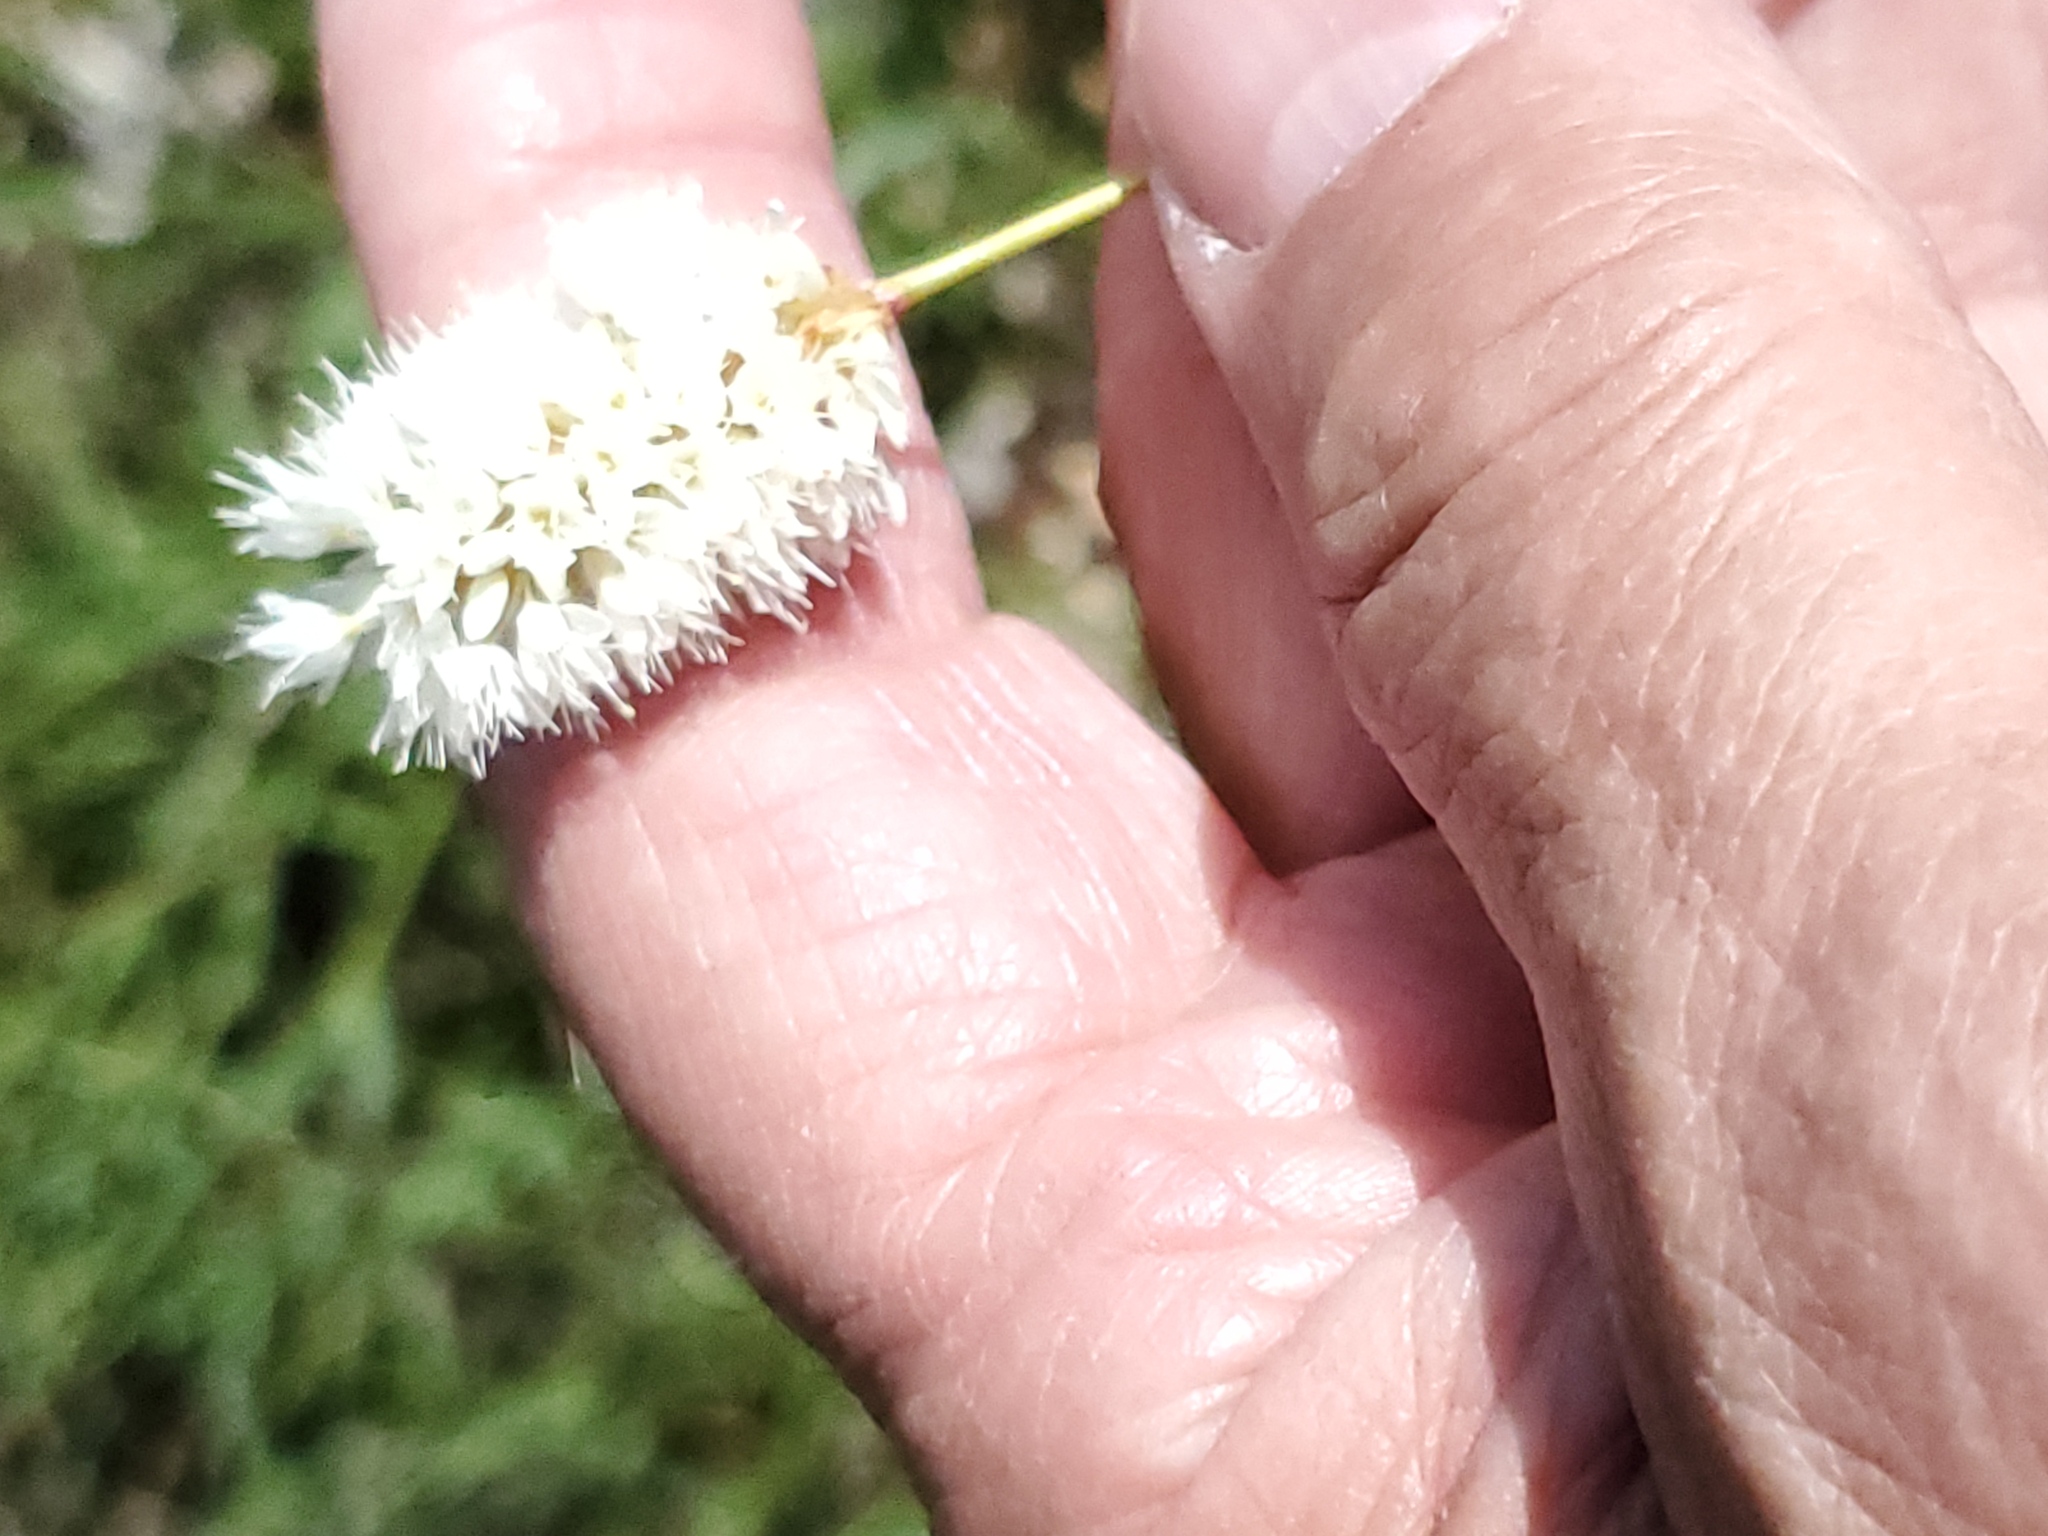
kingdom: Plantae
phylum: Tracheophyta
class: Magnoliopsida
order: Caryophyllales
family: Polygonaceae
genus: Bistorta
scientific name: Bistorta bistortoides
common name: American bistort
